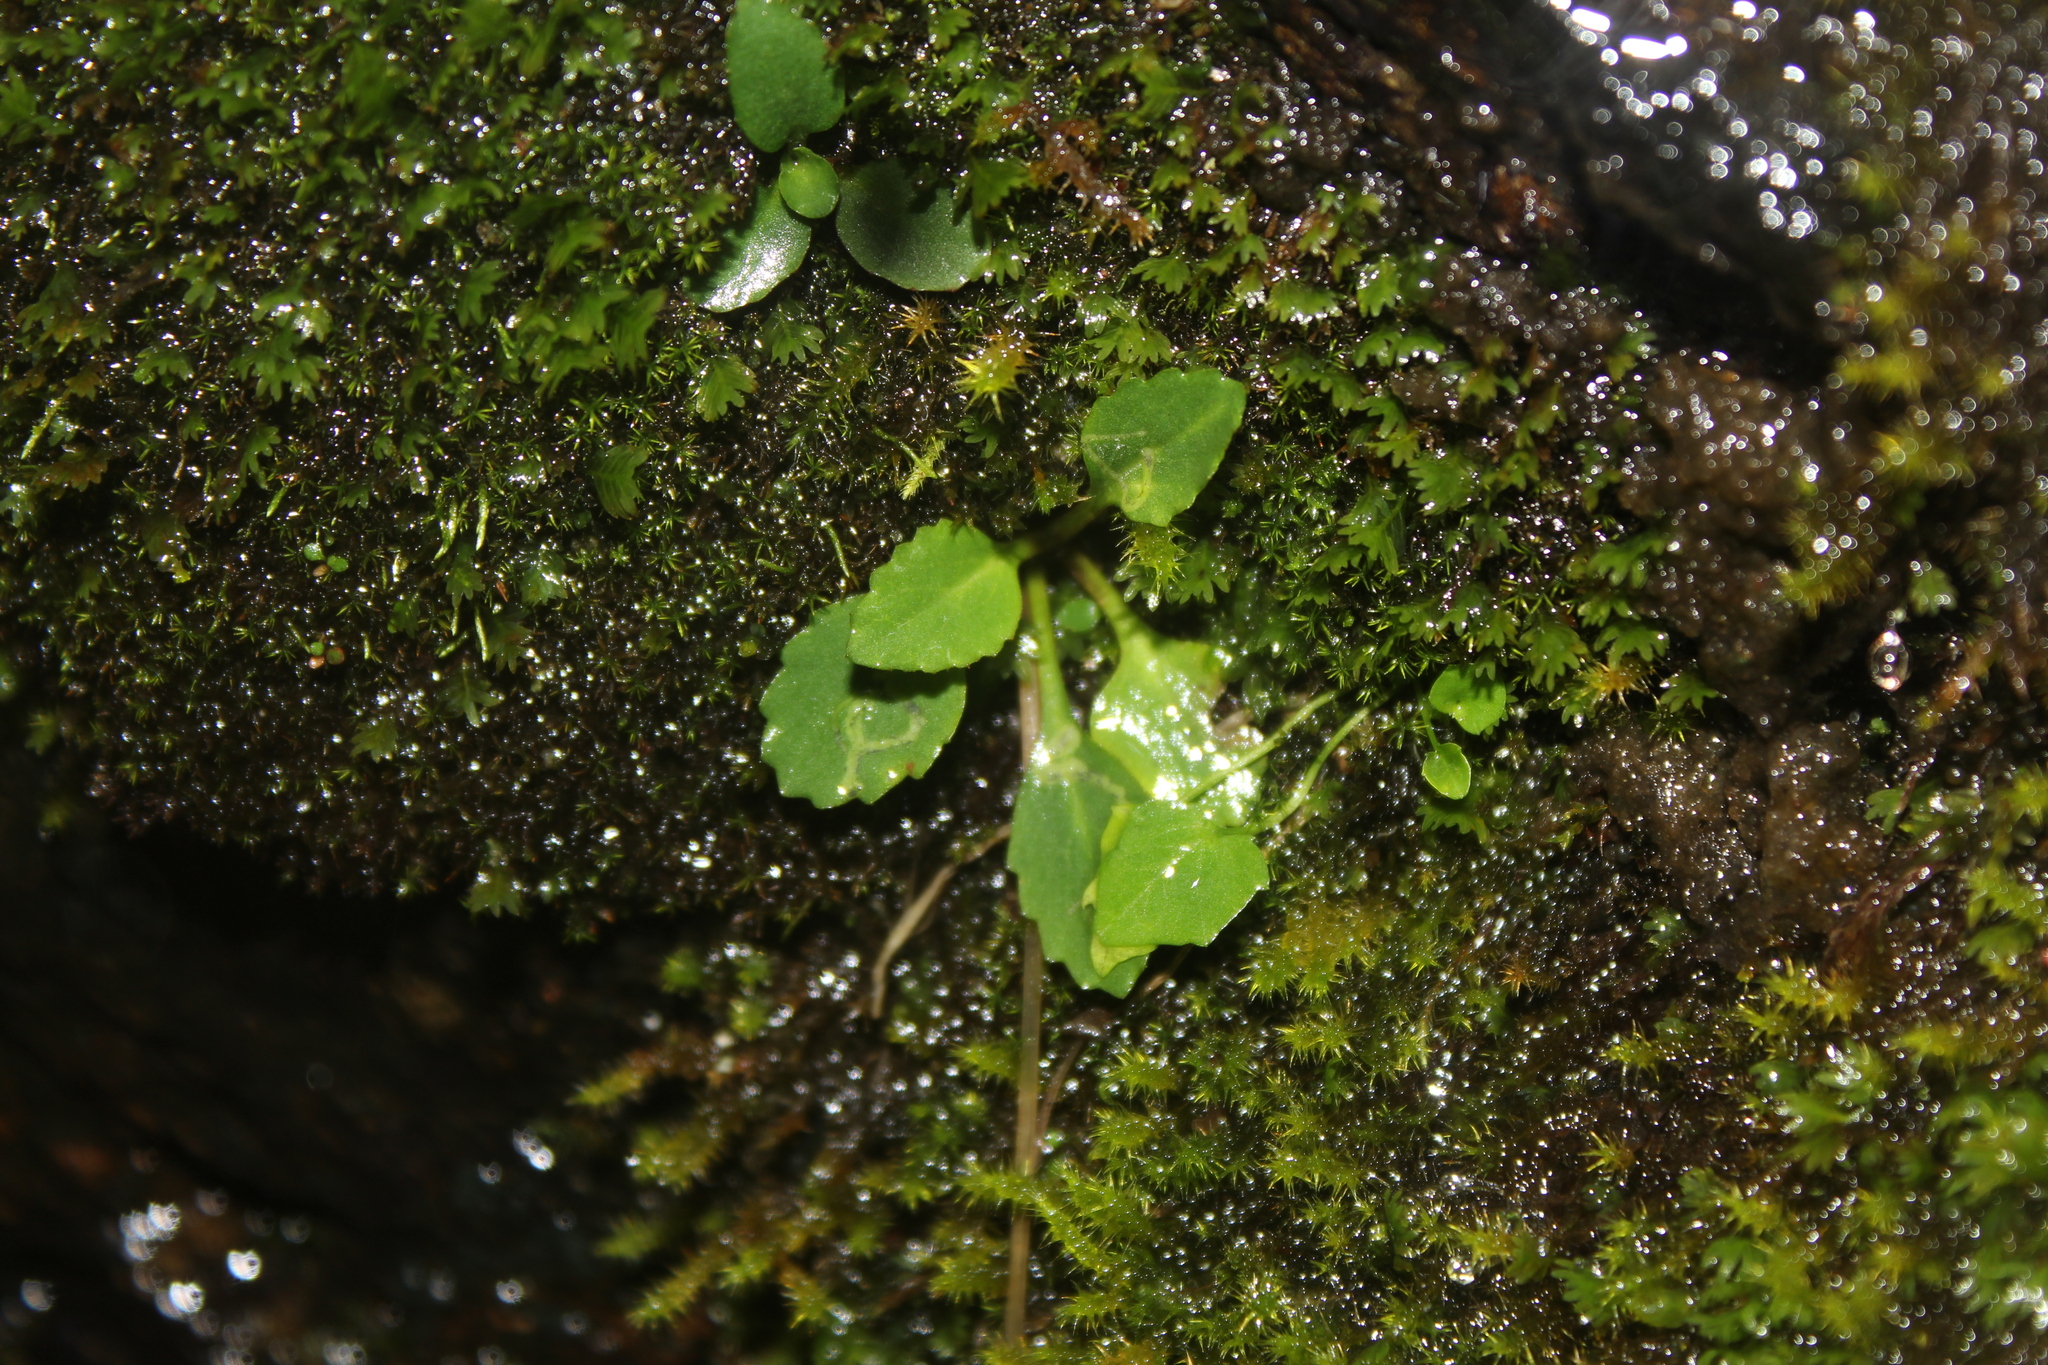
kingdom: Plantae
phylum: Tracheophyta
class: Magnoliopsida
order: Saxifragales
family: Saxifragaceae
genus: Micranthes
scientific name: Micranthes virginiensis
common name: Early saxifrage
